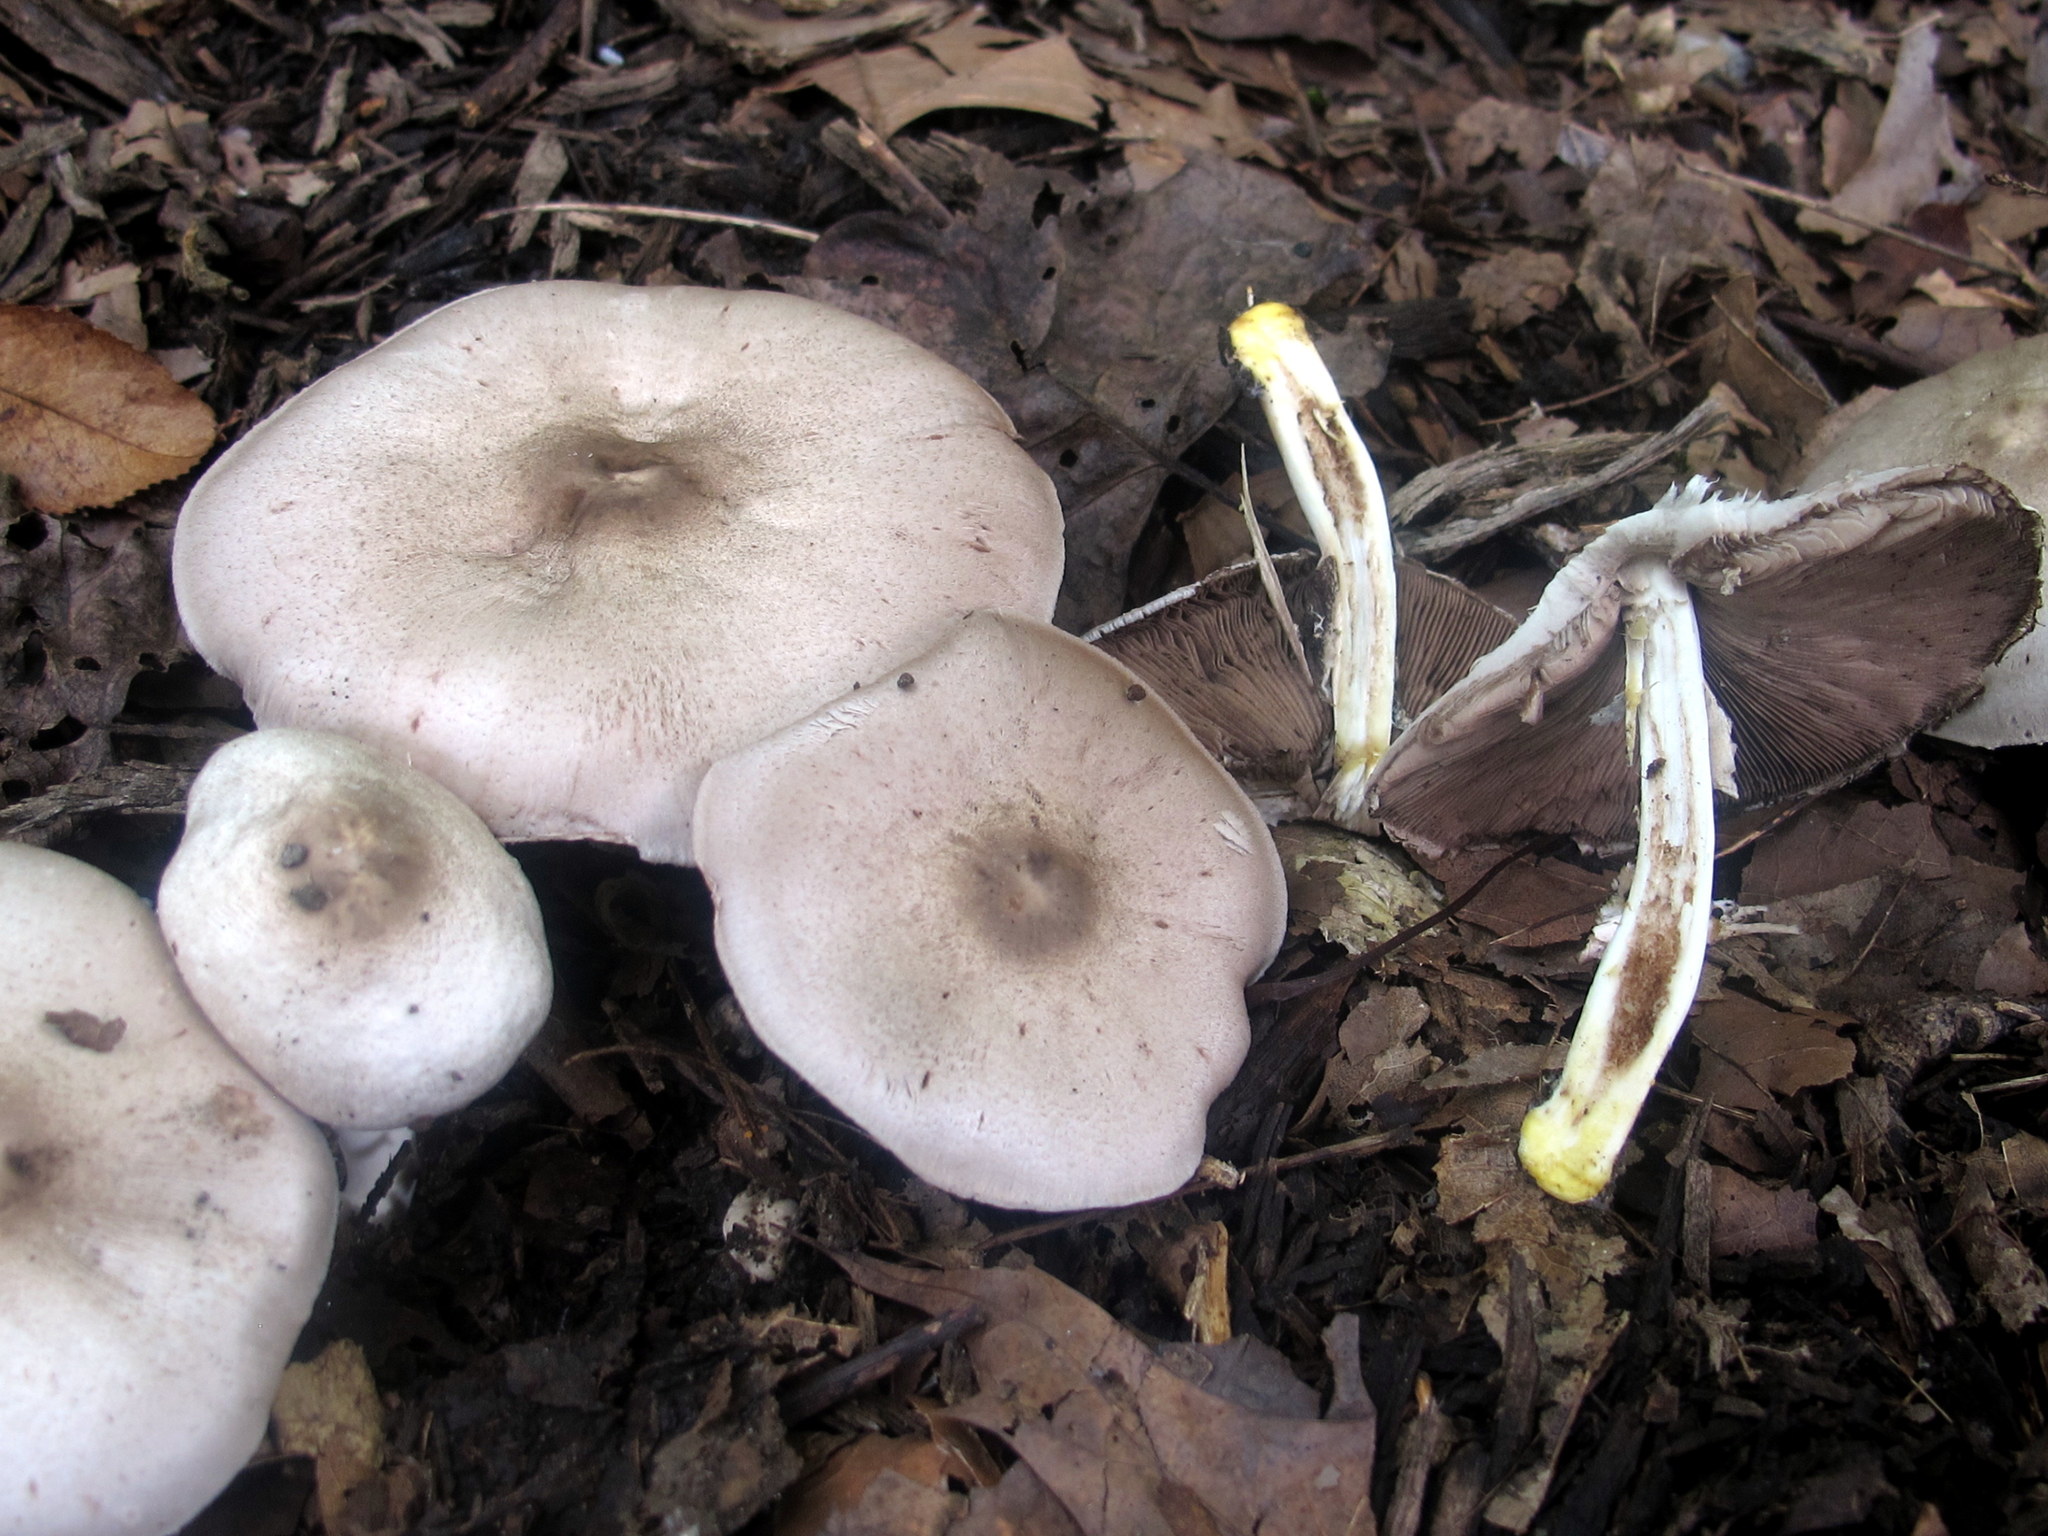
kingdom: Fungi
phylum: Basidiomycota
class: Agaricomycetes
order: Agaricales
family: Agaricaceae
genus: Agaricus
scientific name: Agaricus placomyces
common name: Inky mushroom
